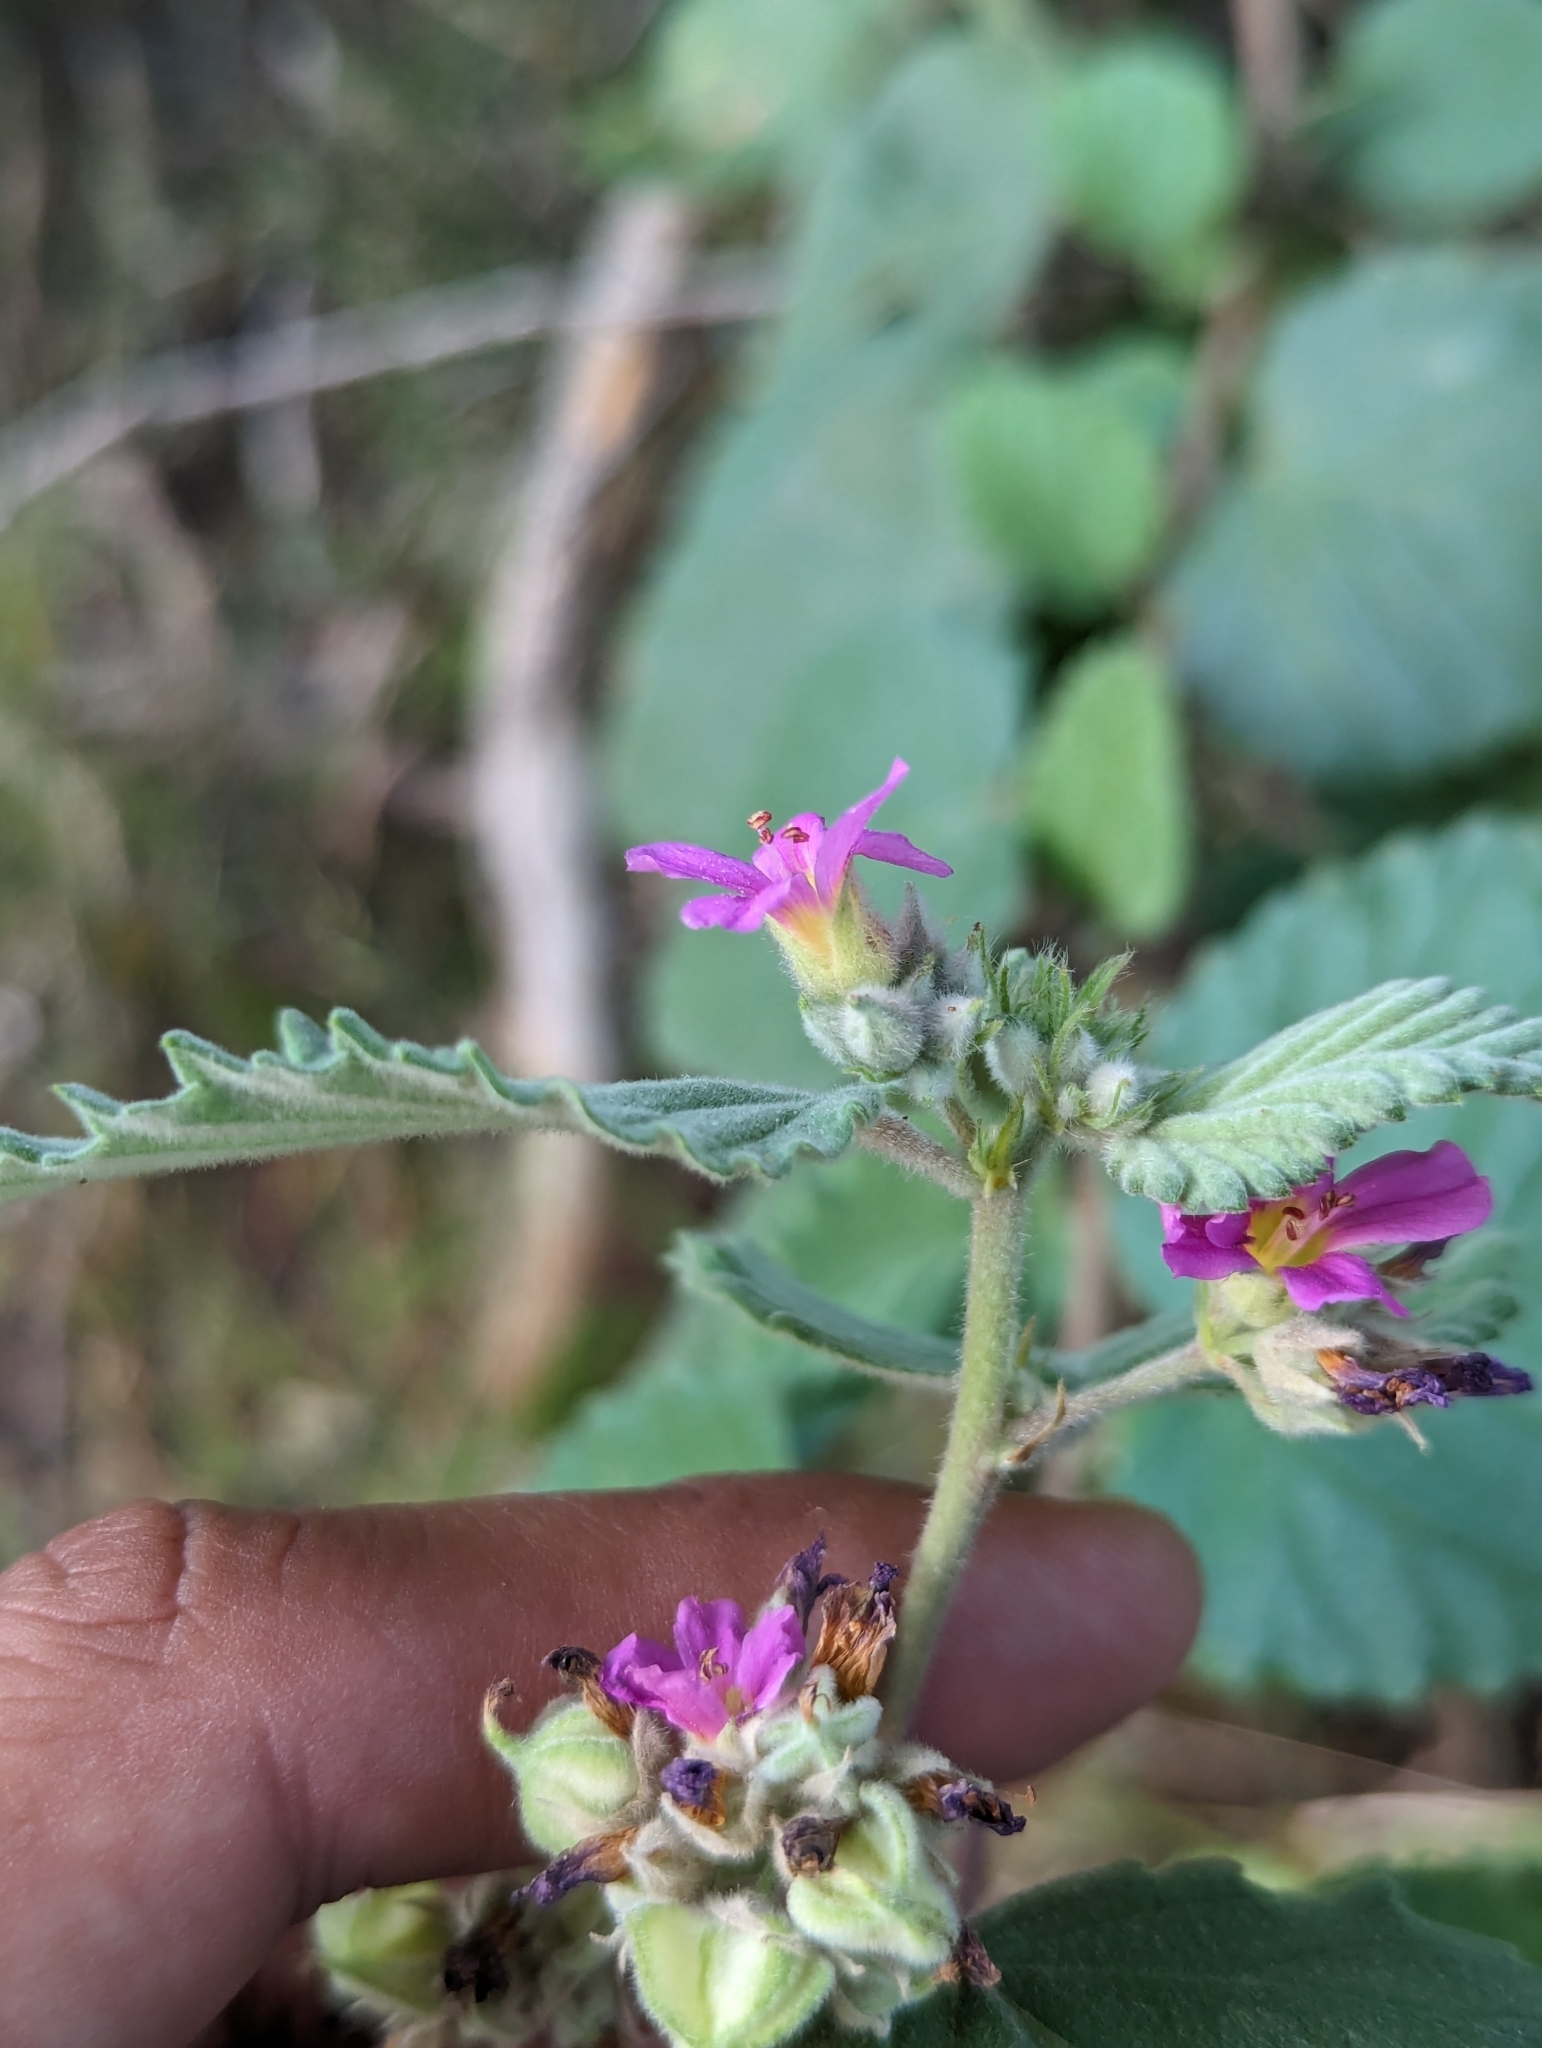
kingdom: Plantae
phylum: Tracheophyta
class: Magnoliopsida
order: Malvales
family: Malvaceae
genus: Melochia
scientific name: Melochia tomentosa
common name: Black torch
